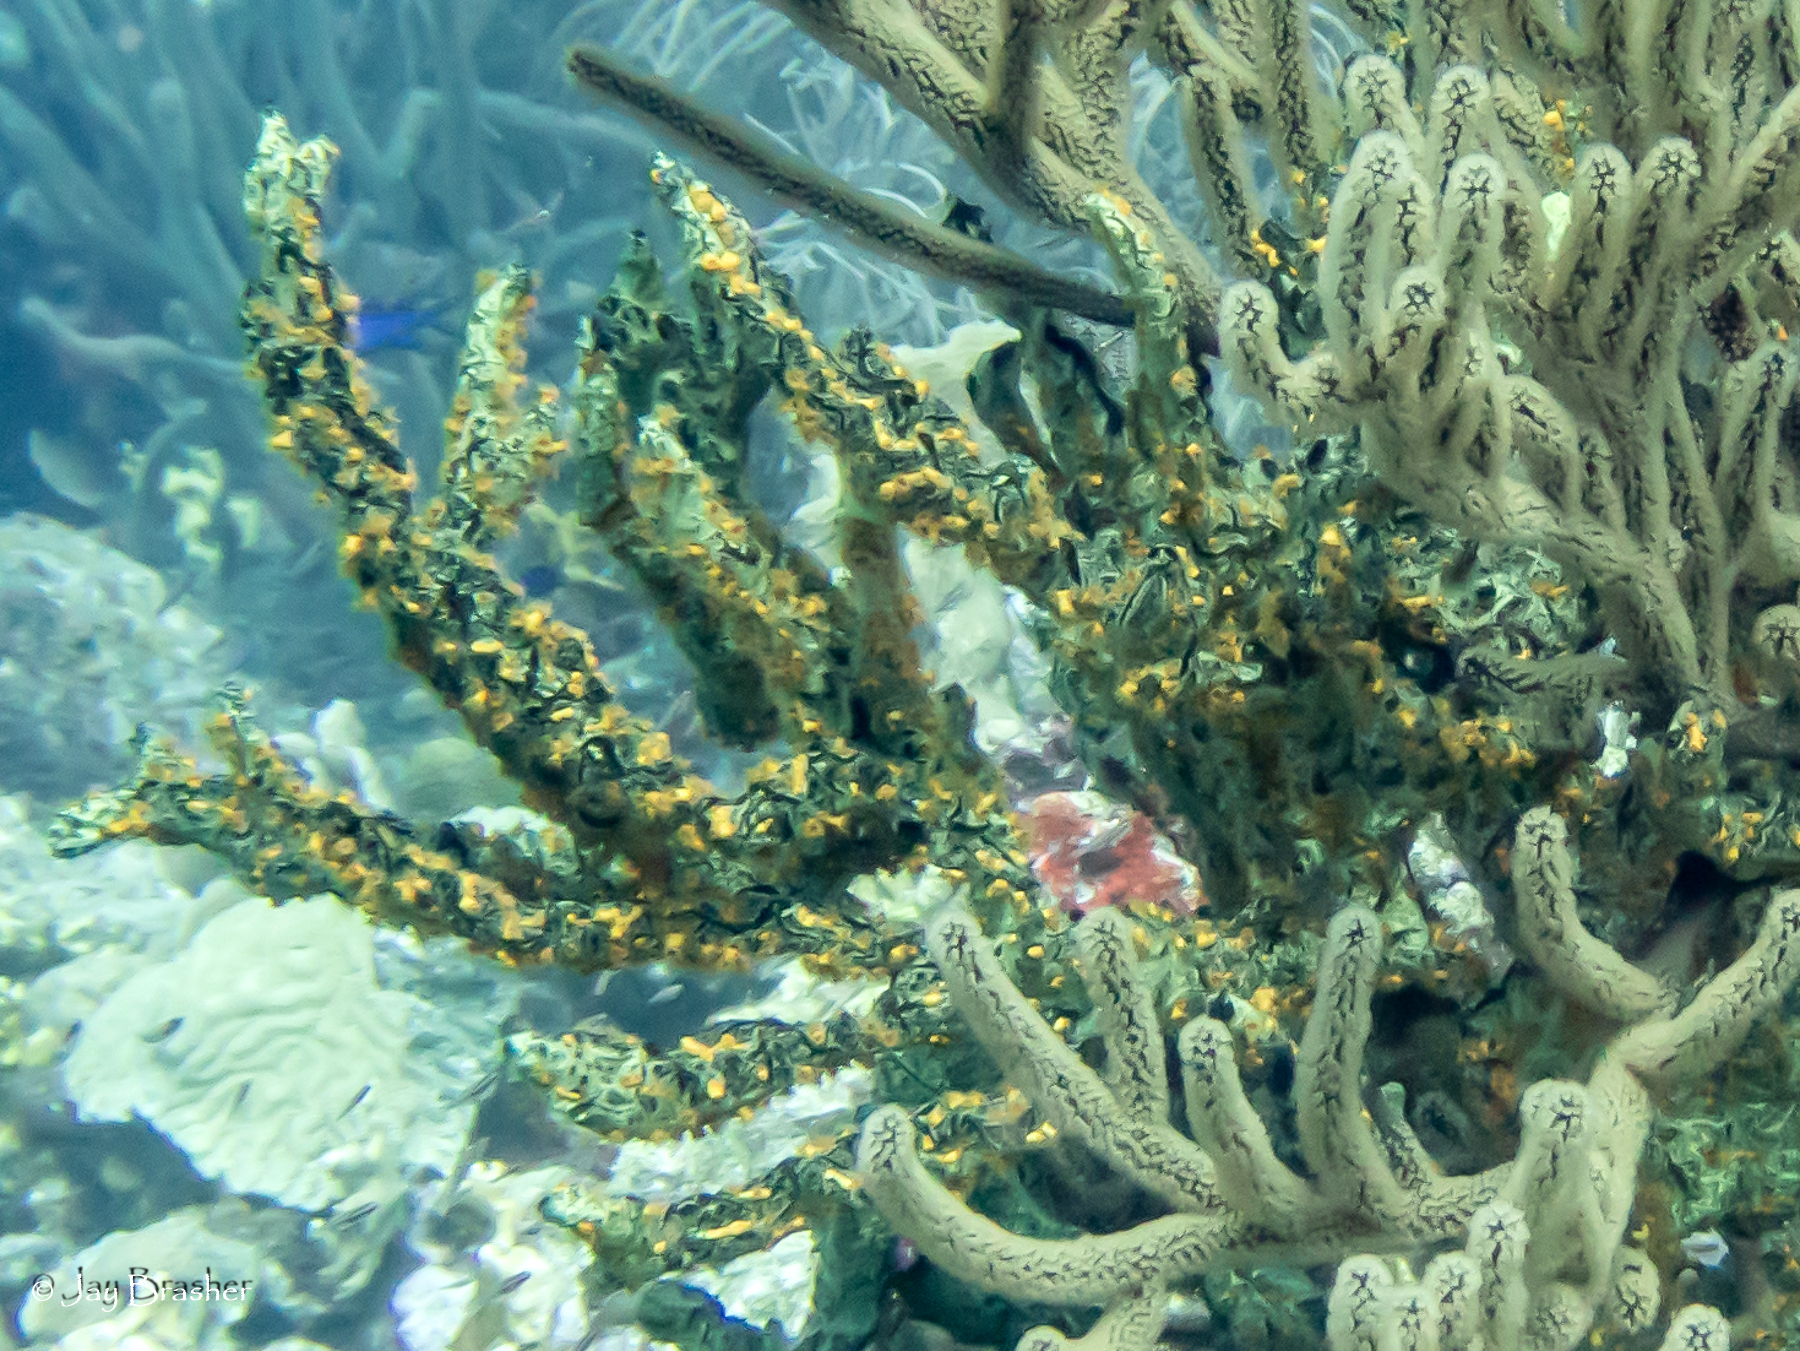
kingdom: Animalia
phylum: Cnidaria
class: Anthozoa
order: Zoantharia
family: Parazoanthidae
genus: Parazoanthus
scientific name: Parazoanthus swiftii
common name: Golden zoanthid
